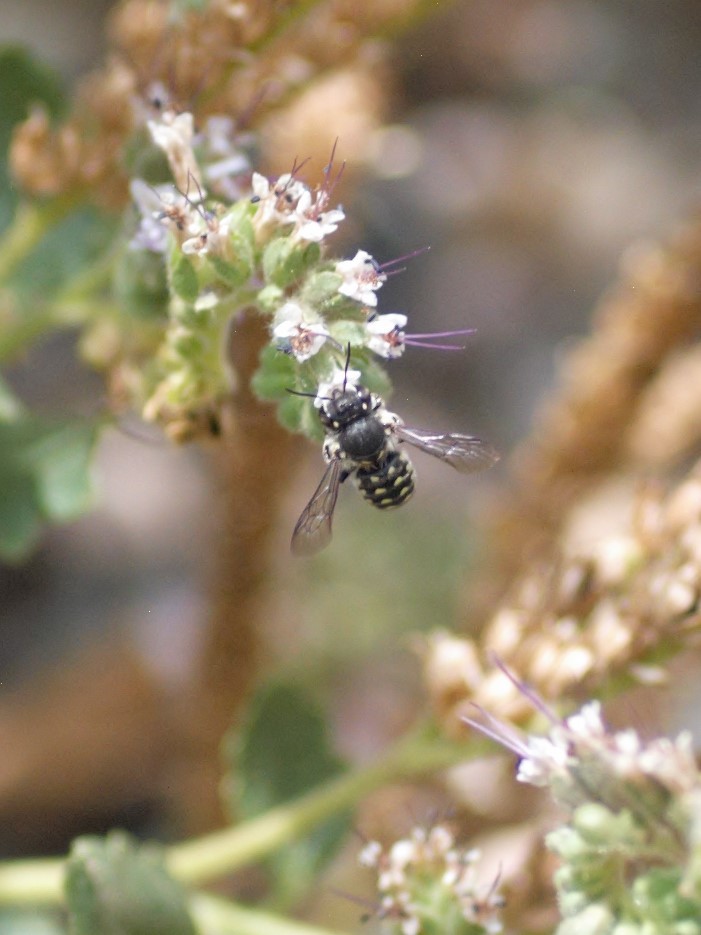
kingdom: Animalia
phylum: Arthropoda
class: Insecta
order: Hymenoptera
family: Megachilidae
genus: Anthidium
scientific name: Anthidium maculosum
